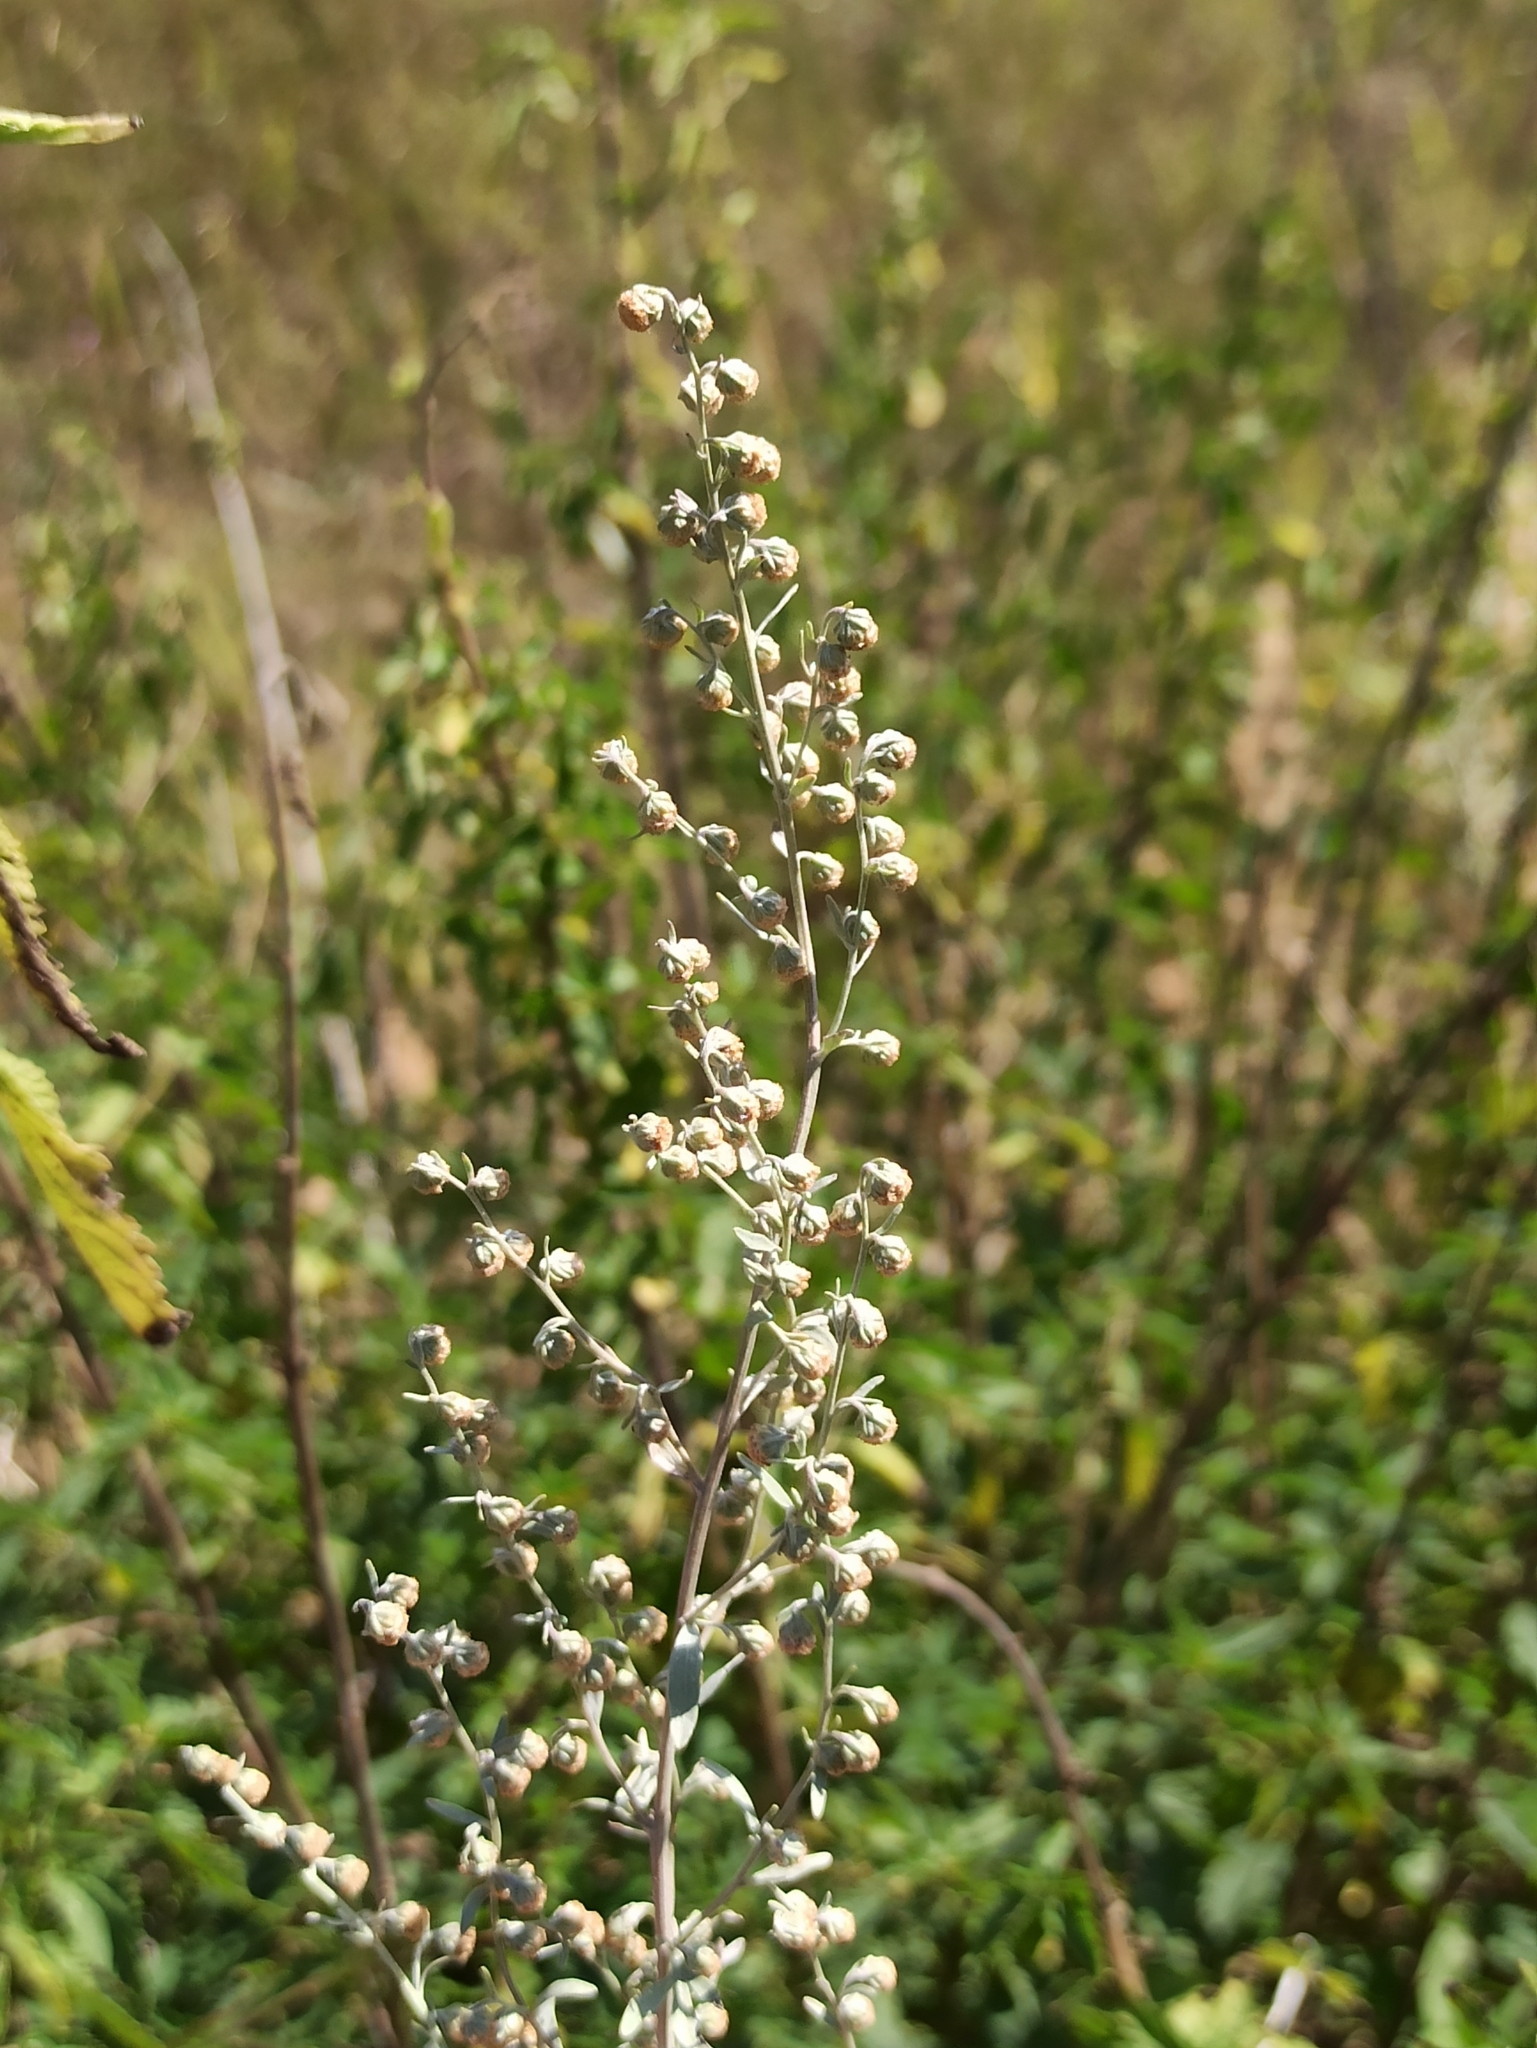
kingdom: Plantae
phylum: Tracheophyta
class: Magnoliopsida
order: Asterales
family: Asteraceae
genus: Artemisia
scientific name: Artemisia absinthium
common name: Wormwood
